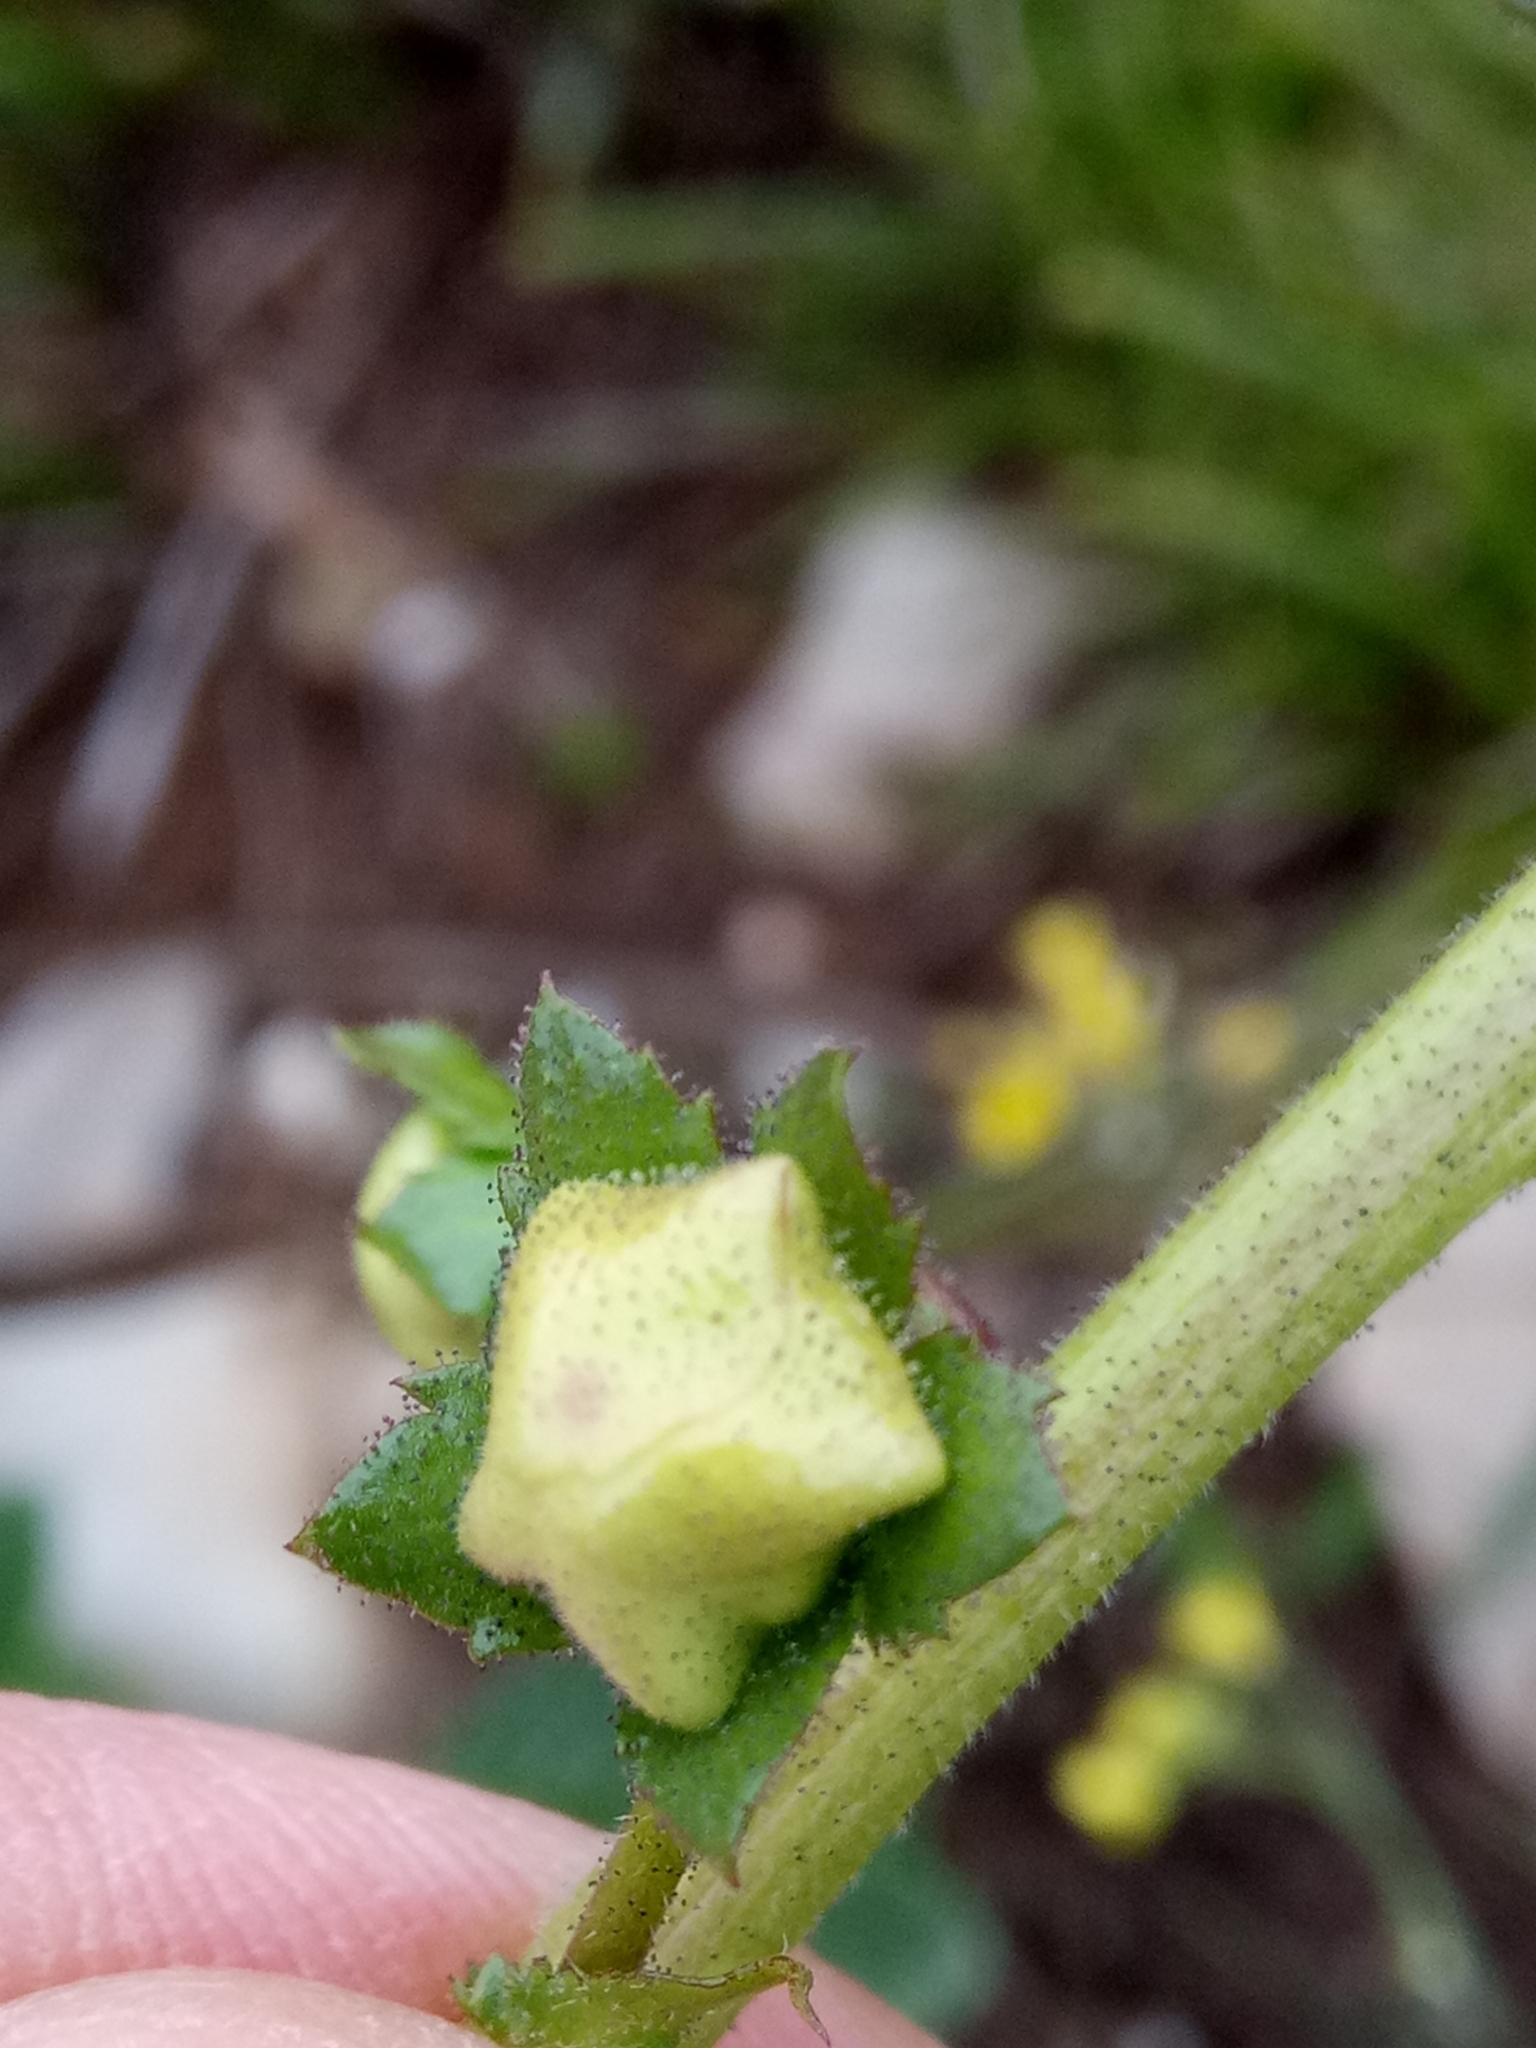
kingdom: Plantae
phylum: Tracheophyta
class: Magnoliopsida
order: Lamiales
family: Scrophulariaceae
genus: Verbascum
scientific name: Verbascum betonicifolium
